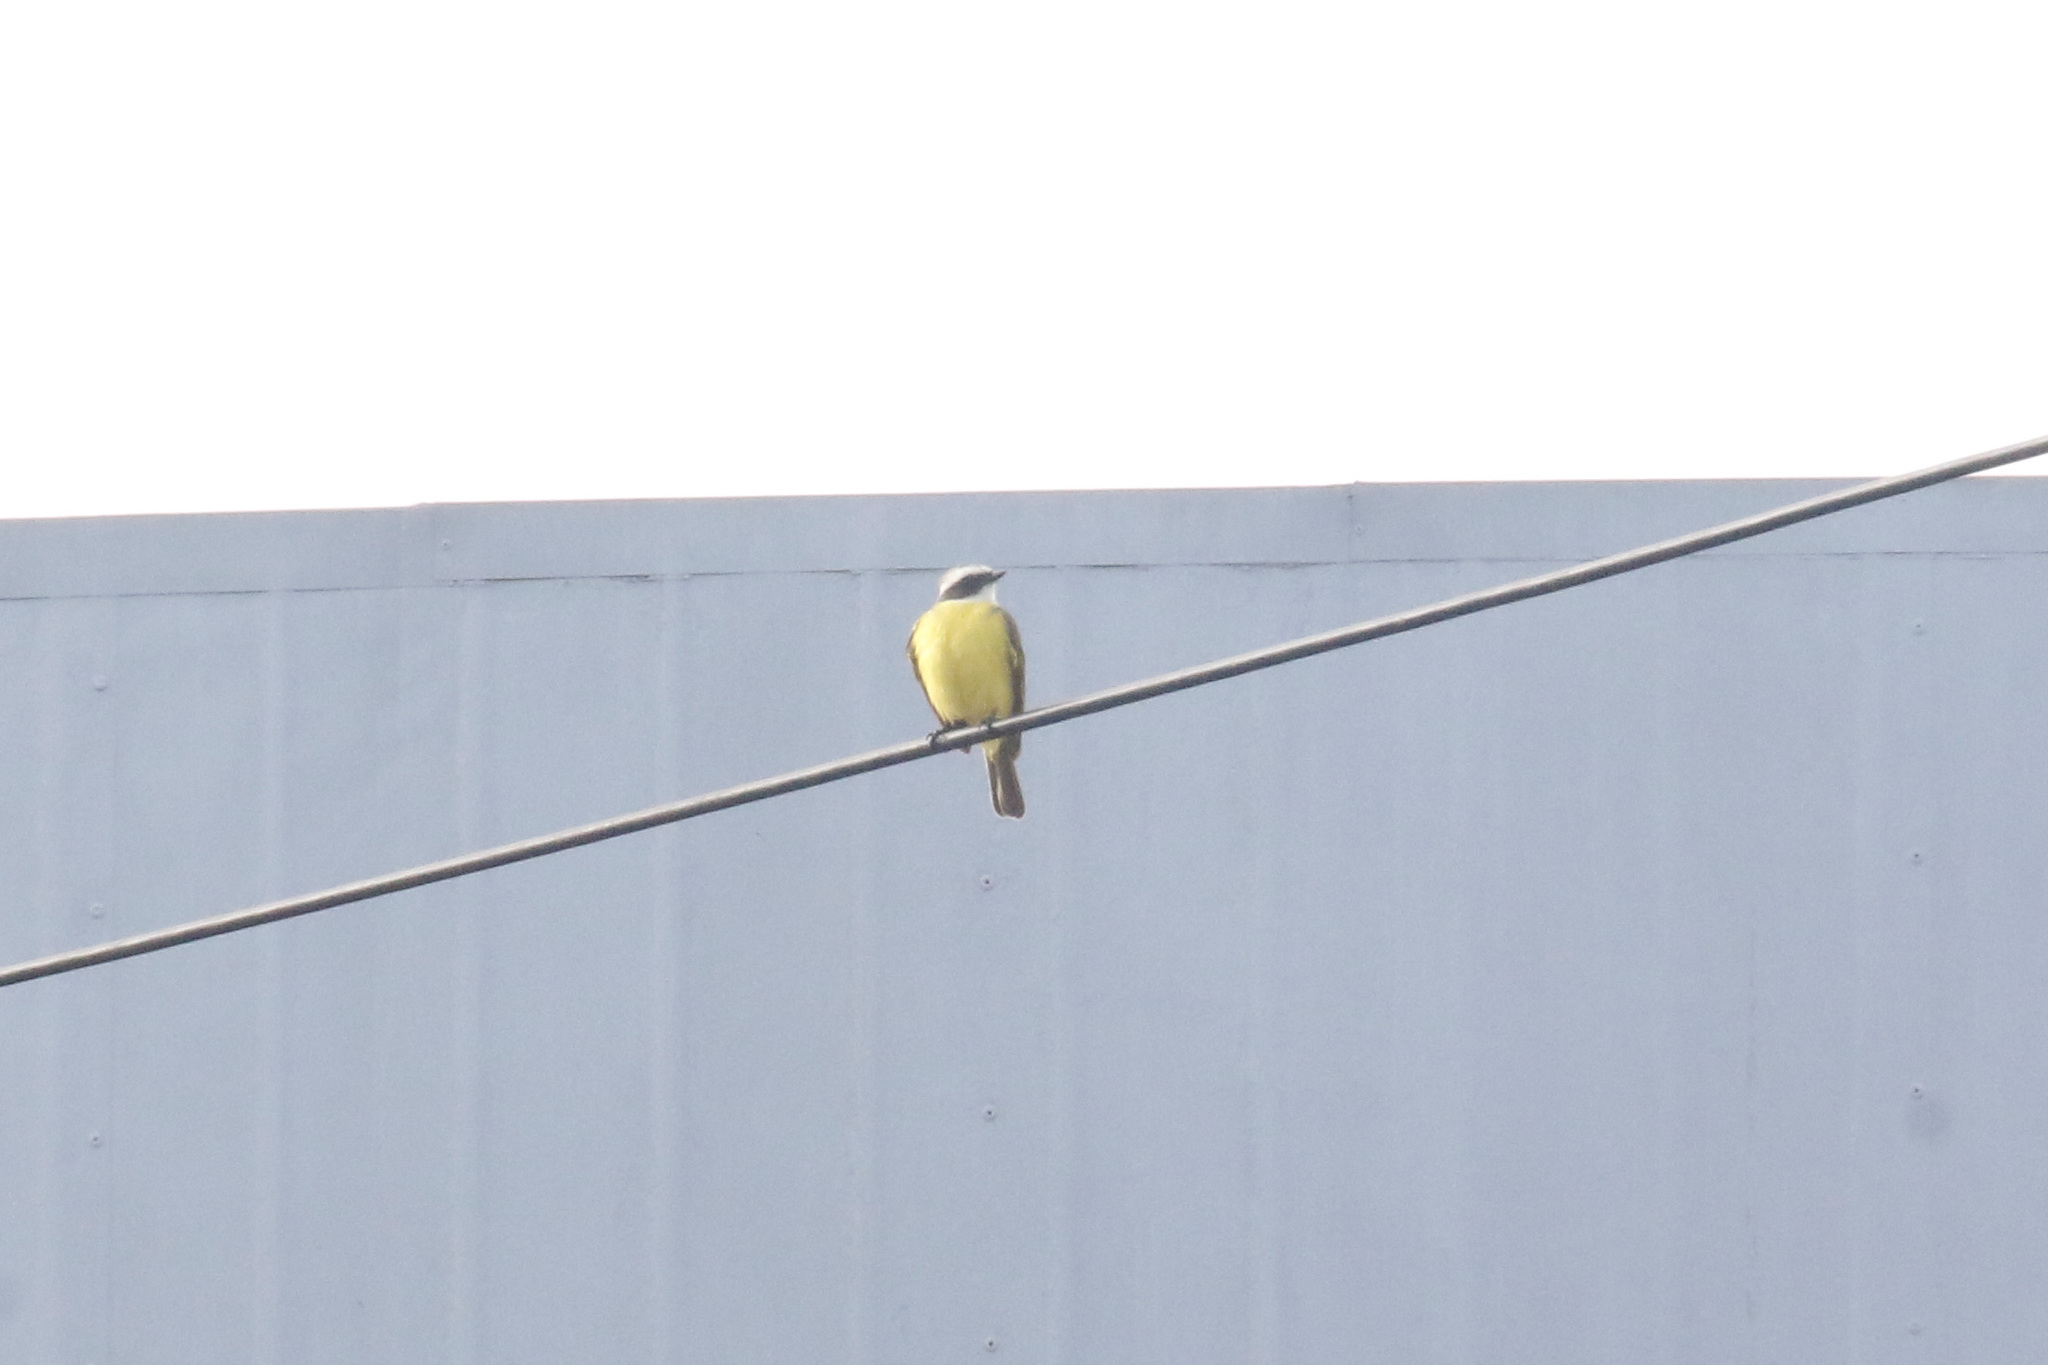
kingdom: Animalia
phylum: Chordata
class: Aves
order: Passeriformes
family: Tyrannidae
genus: Myiozetetes
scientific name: Myiozetetes similis
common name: Social flycatcher
